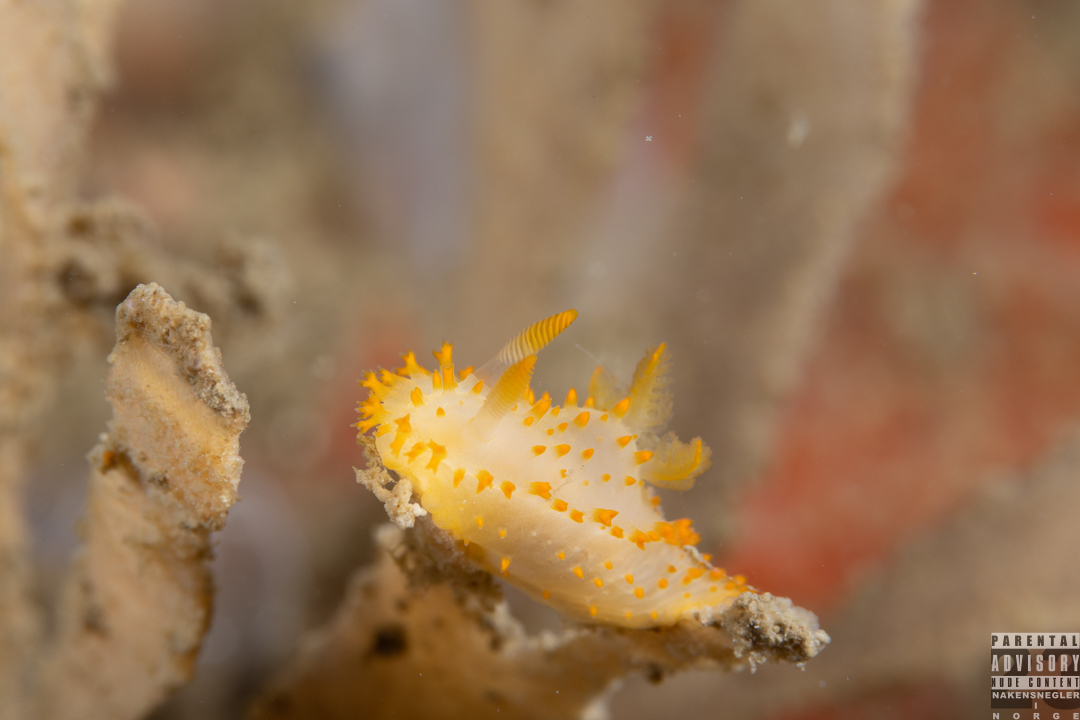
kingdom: Animalia
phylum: Mollusca
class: Gastropoda
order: Nudibranchia
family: Polyceridae
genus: Crimora
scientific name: Crimora papillata
